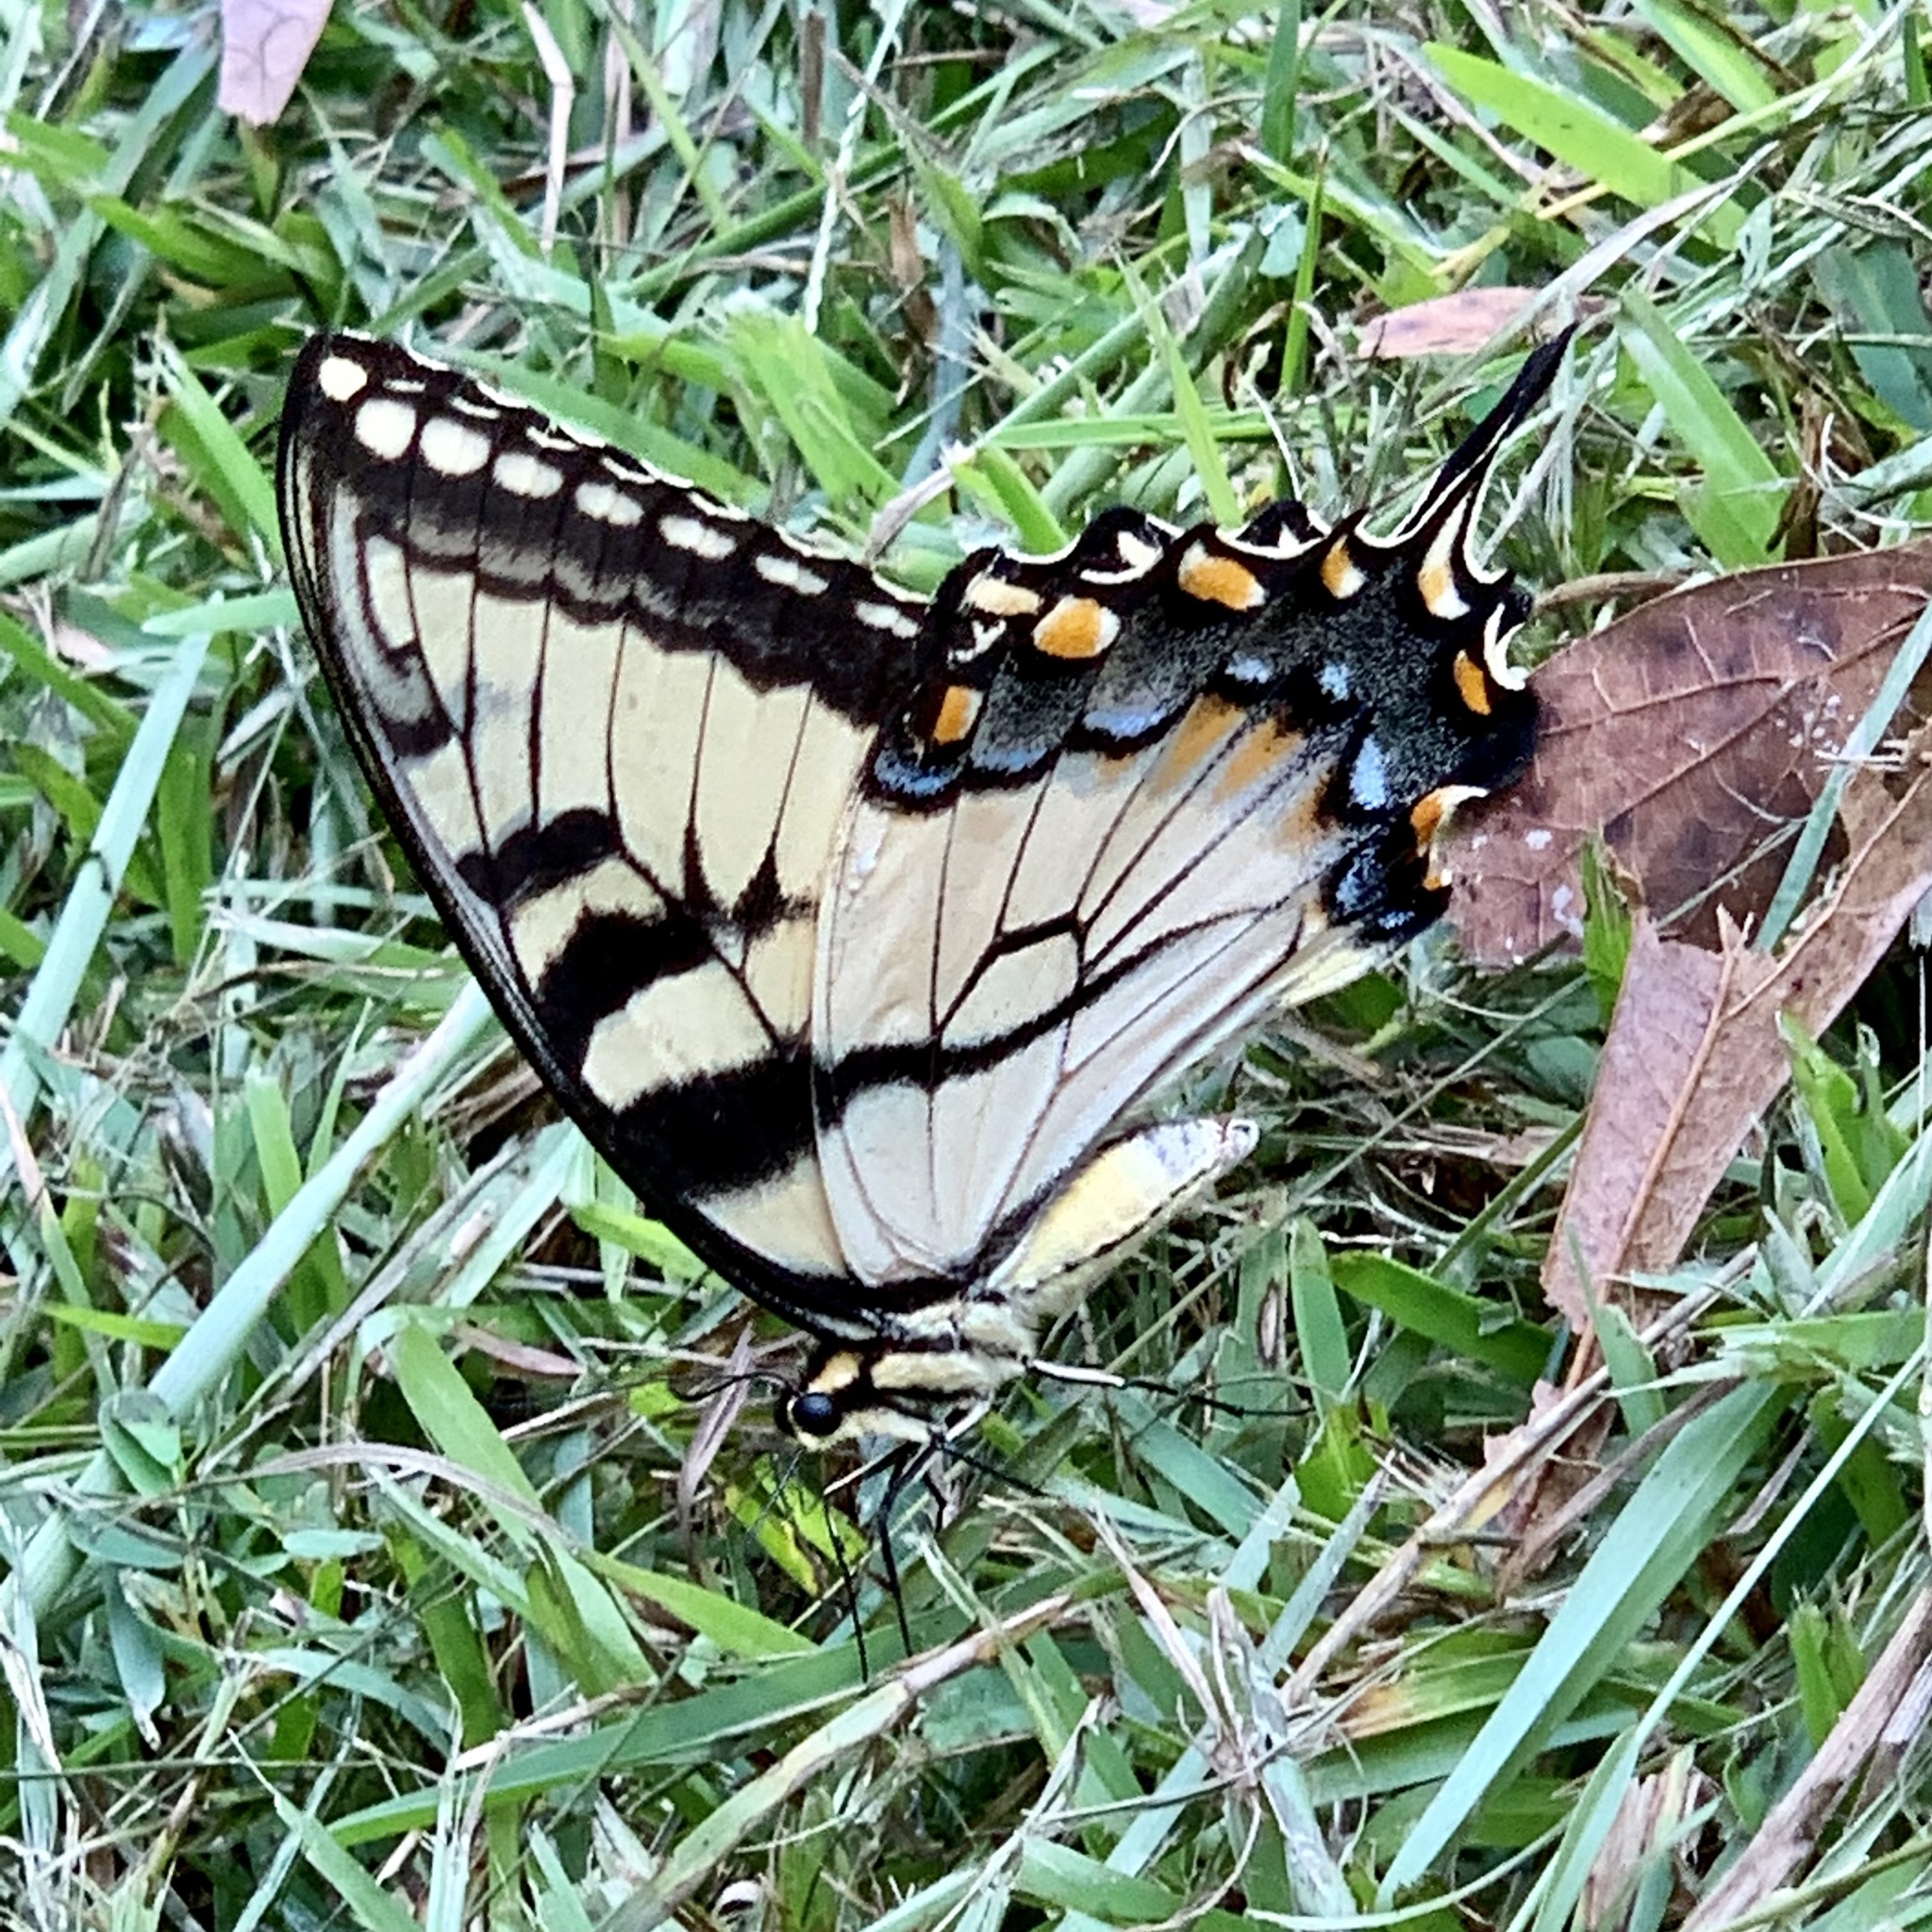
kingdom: Animalia
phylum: Arthropoda
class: Insecta
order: Lepidoptera
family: Papilionidae
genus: Papilio
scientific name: Papilio glaucus
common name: Tiger swallowtail
